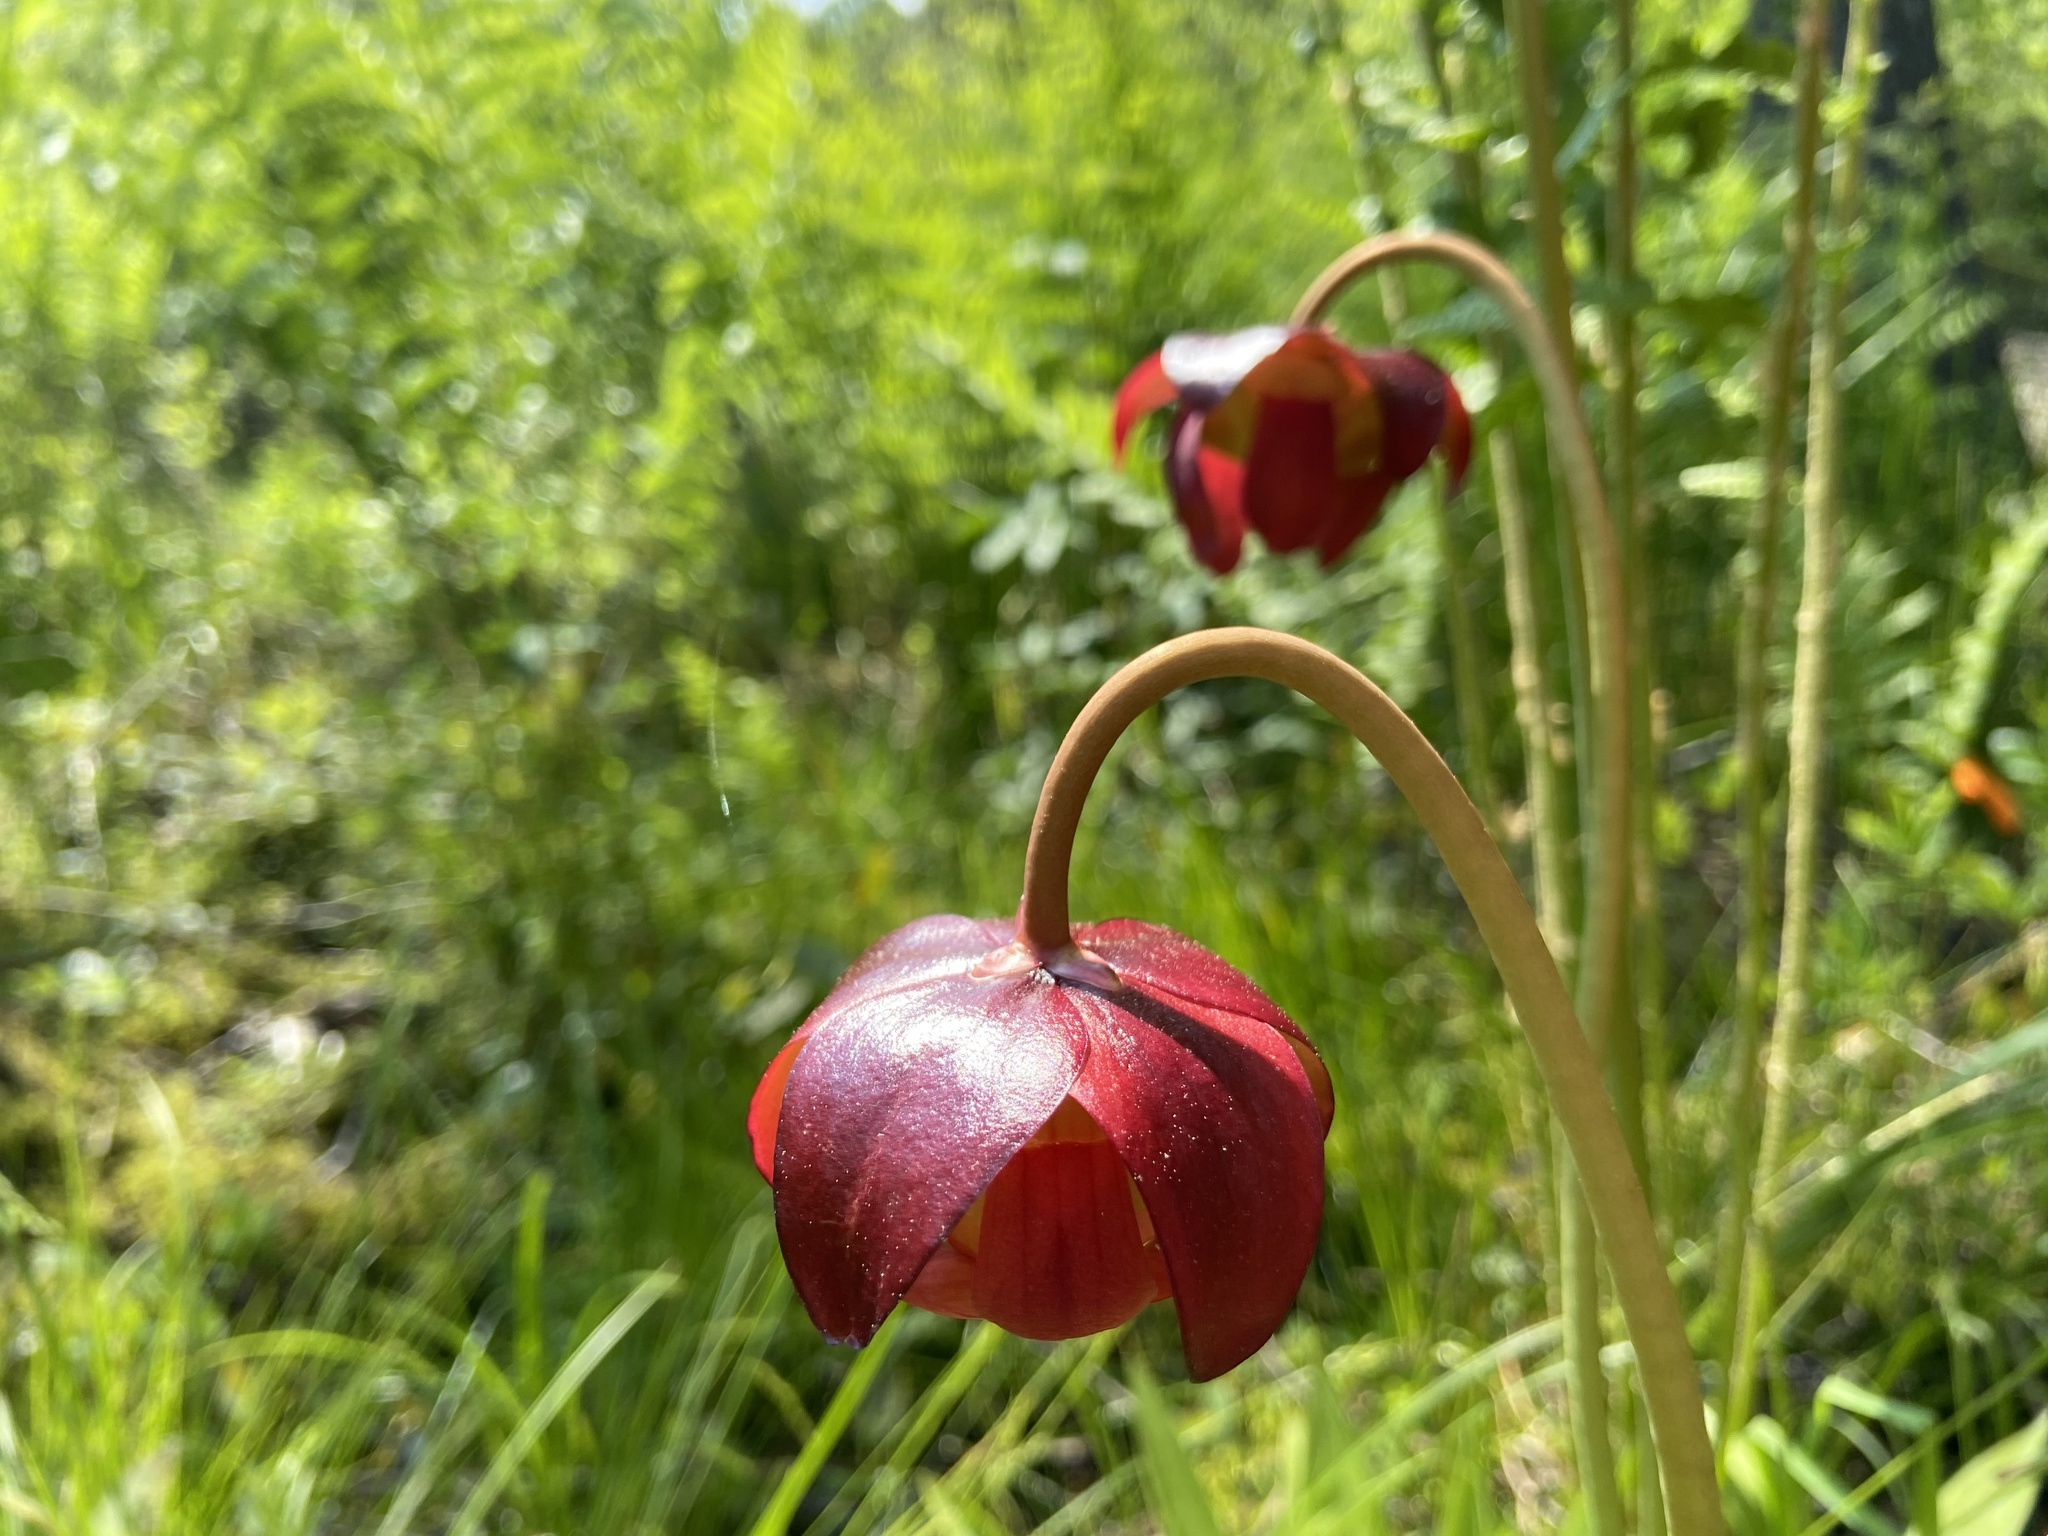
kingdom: Plantae
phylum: Tracheophyta
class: Magnoliopsida
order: Ericales
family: Sarraceniaceae
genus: Sarracenia
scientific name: Sarracenia purpurea
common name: Pitcherplant
